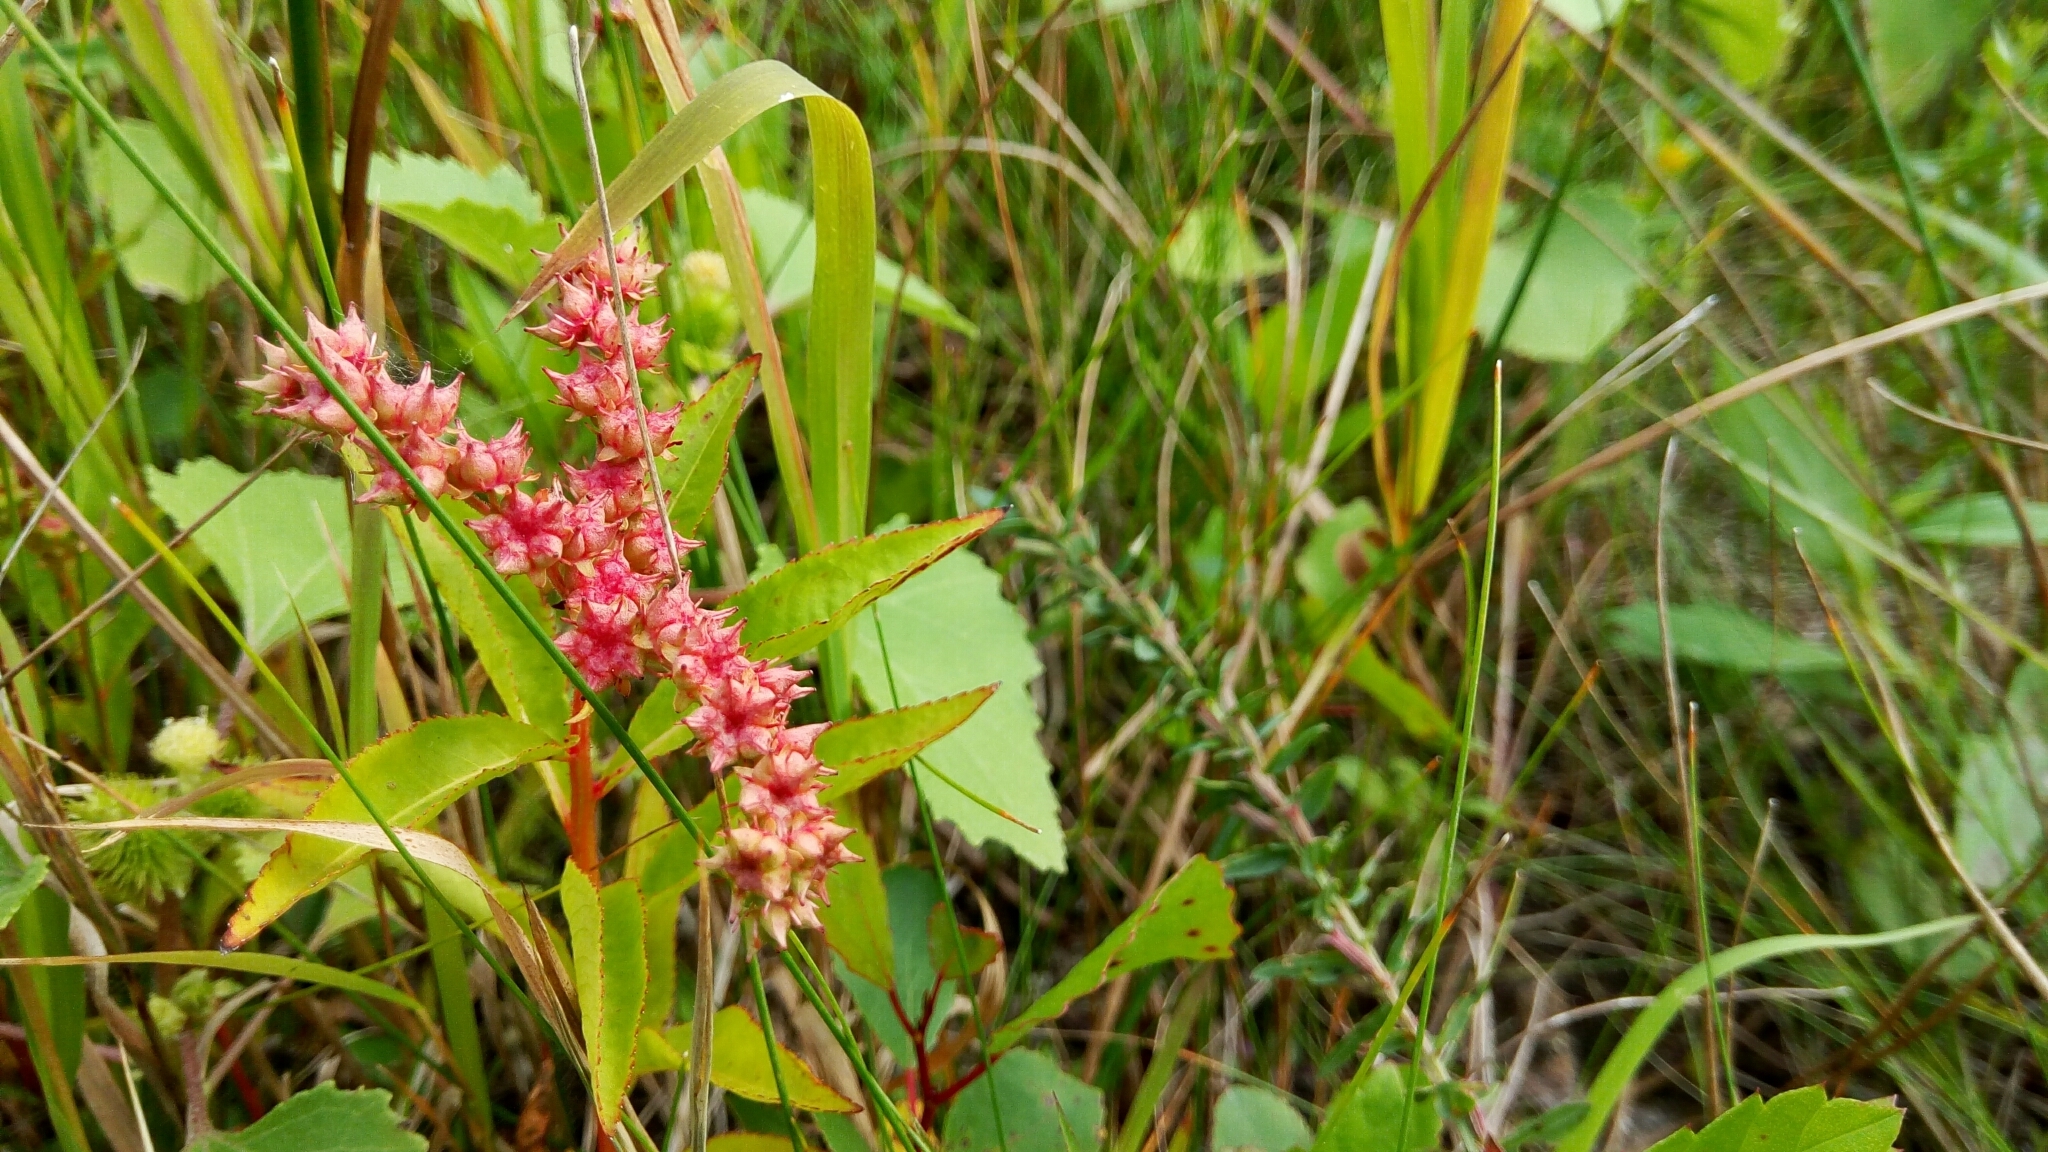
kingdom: Plantae
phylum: Tracheophyta
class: Magnoliopsida
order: Saxifragales
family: Penthoraceae
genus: Penthorum
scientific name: Penthorum sedoides
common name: Ditch stonecrop
